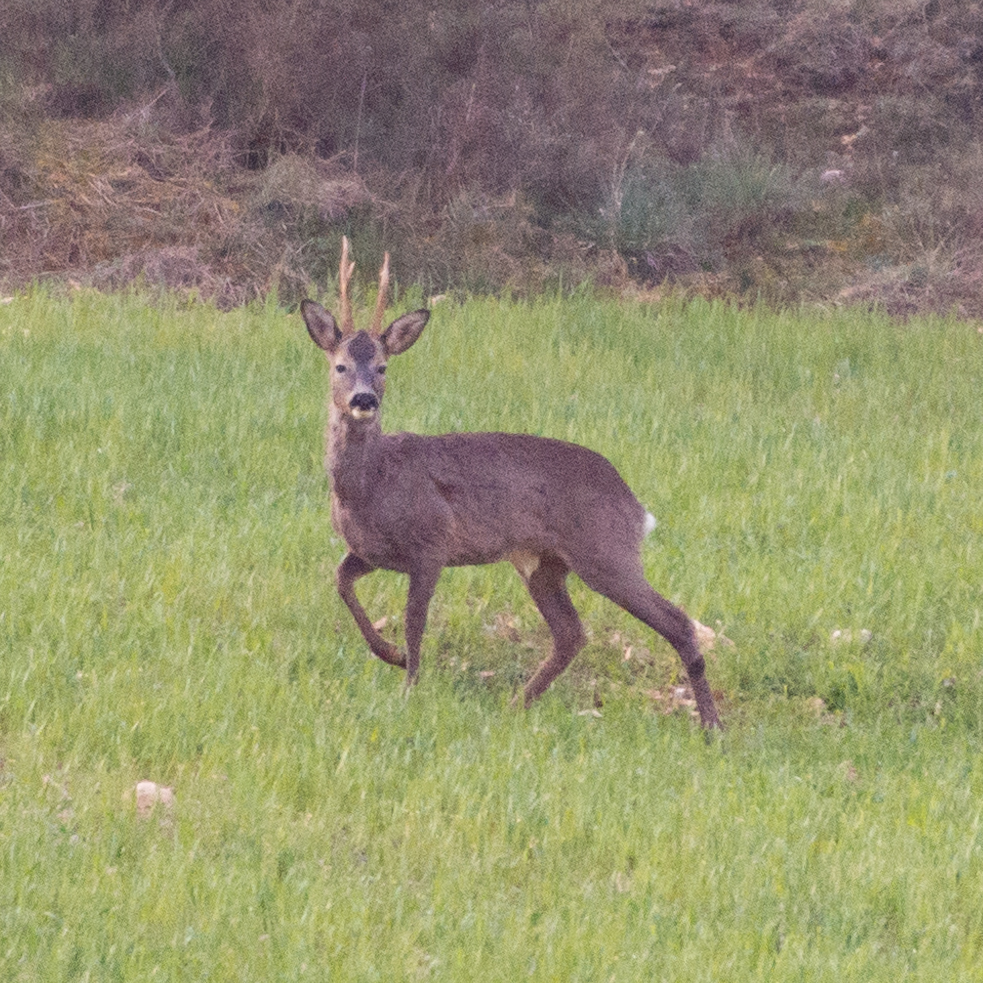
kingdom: Animalia
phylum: Chordata
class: Mammalia
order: Artiodactyla
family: Cervidae
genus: Capreolus
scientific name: Capreolus capreolus
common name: Western roe deer
